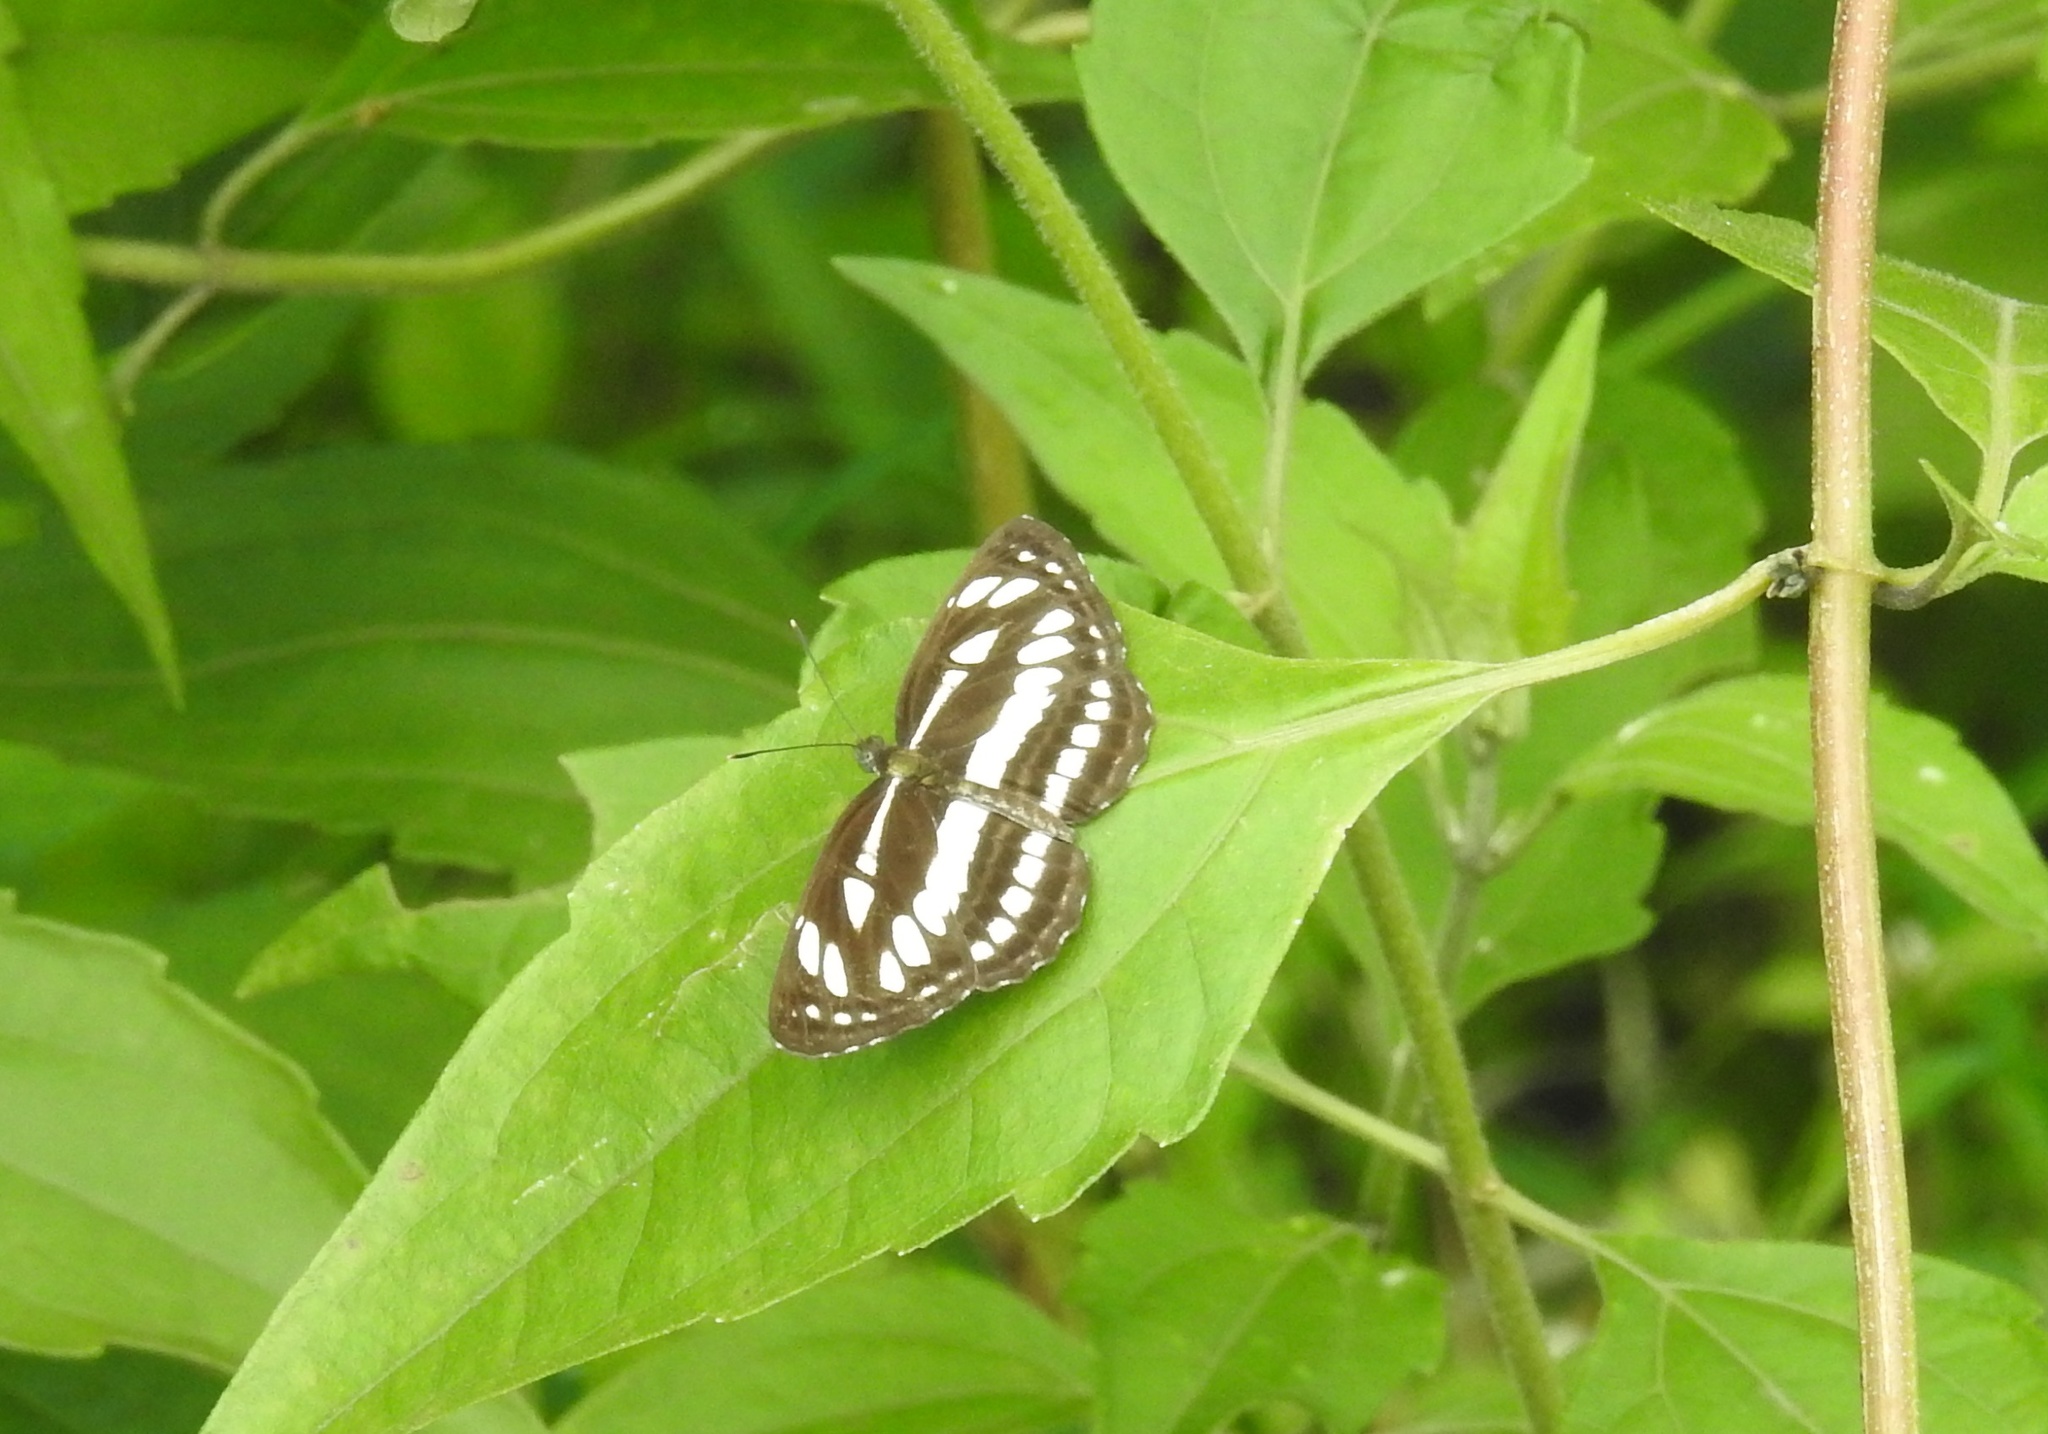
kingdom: Animalia
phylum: Arthropoda
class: Insecta
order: Lepidoptera
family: Nymphalidae
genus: Neptis
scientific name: Neptis hylas
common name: Common sailer
